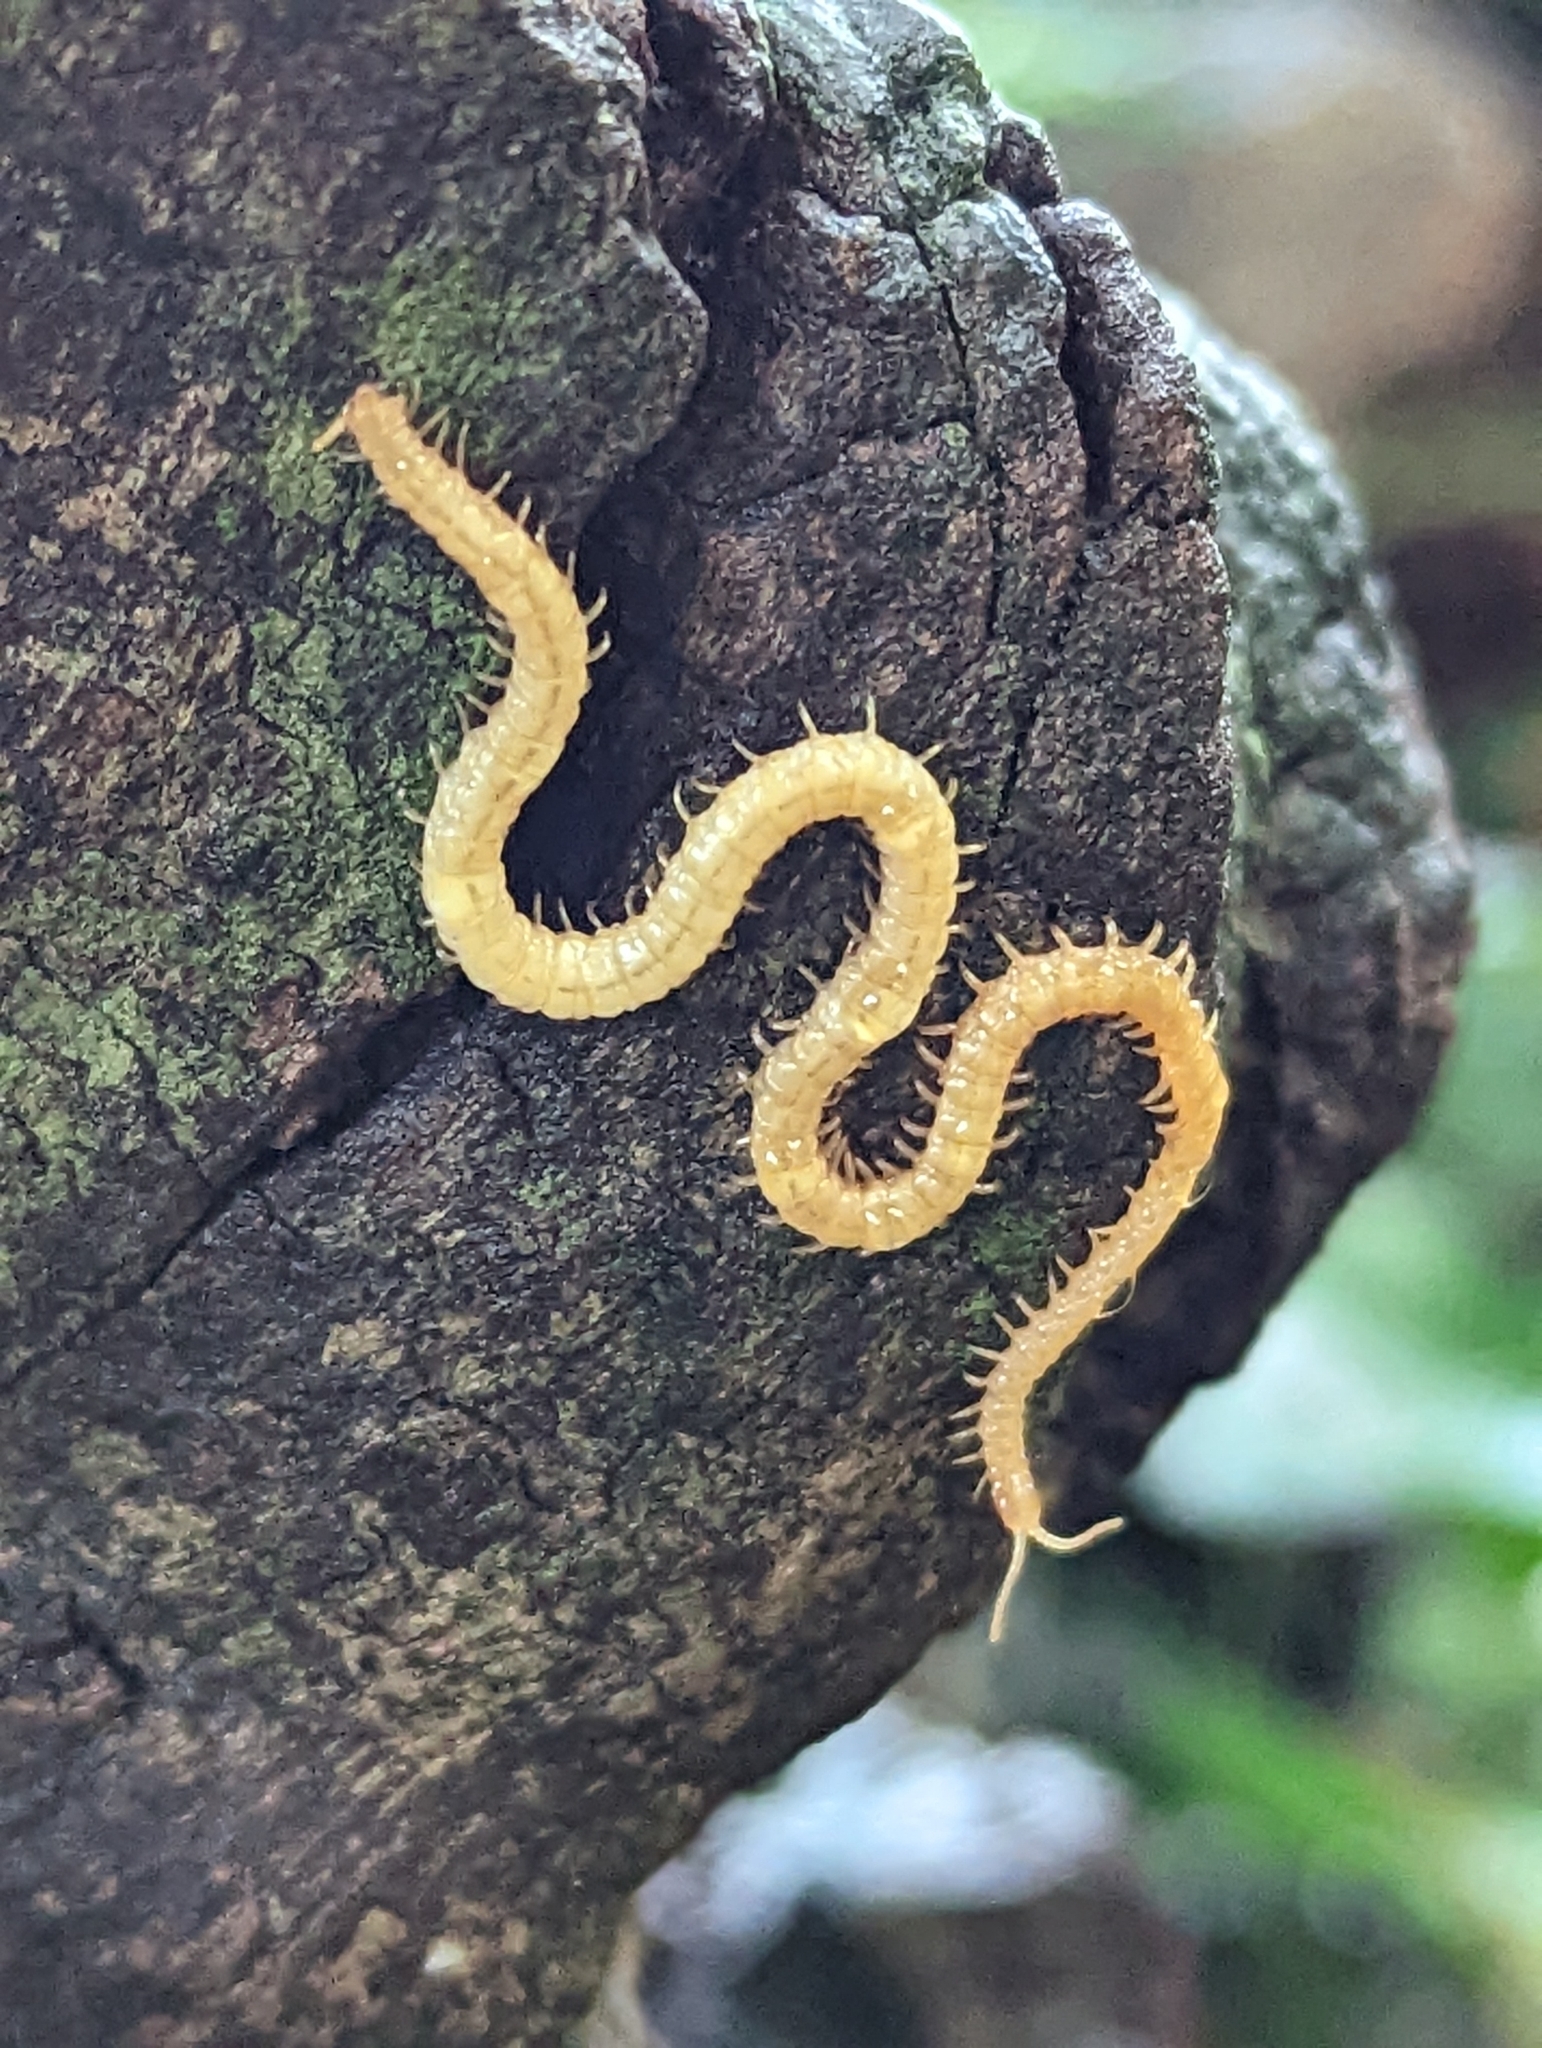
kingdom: Animalia
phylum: Arthropoda
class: Chilopoda
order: Geophilomorpha
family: Himantariidae
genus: Stigmatogaster
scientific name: Stigmatogaster subterranea
